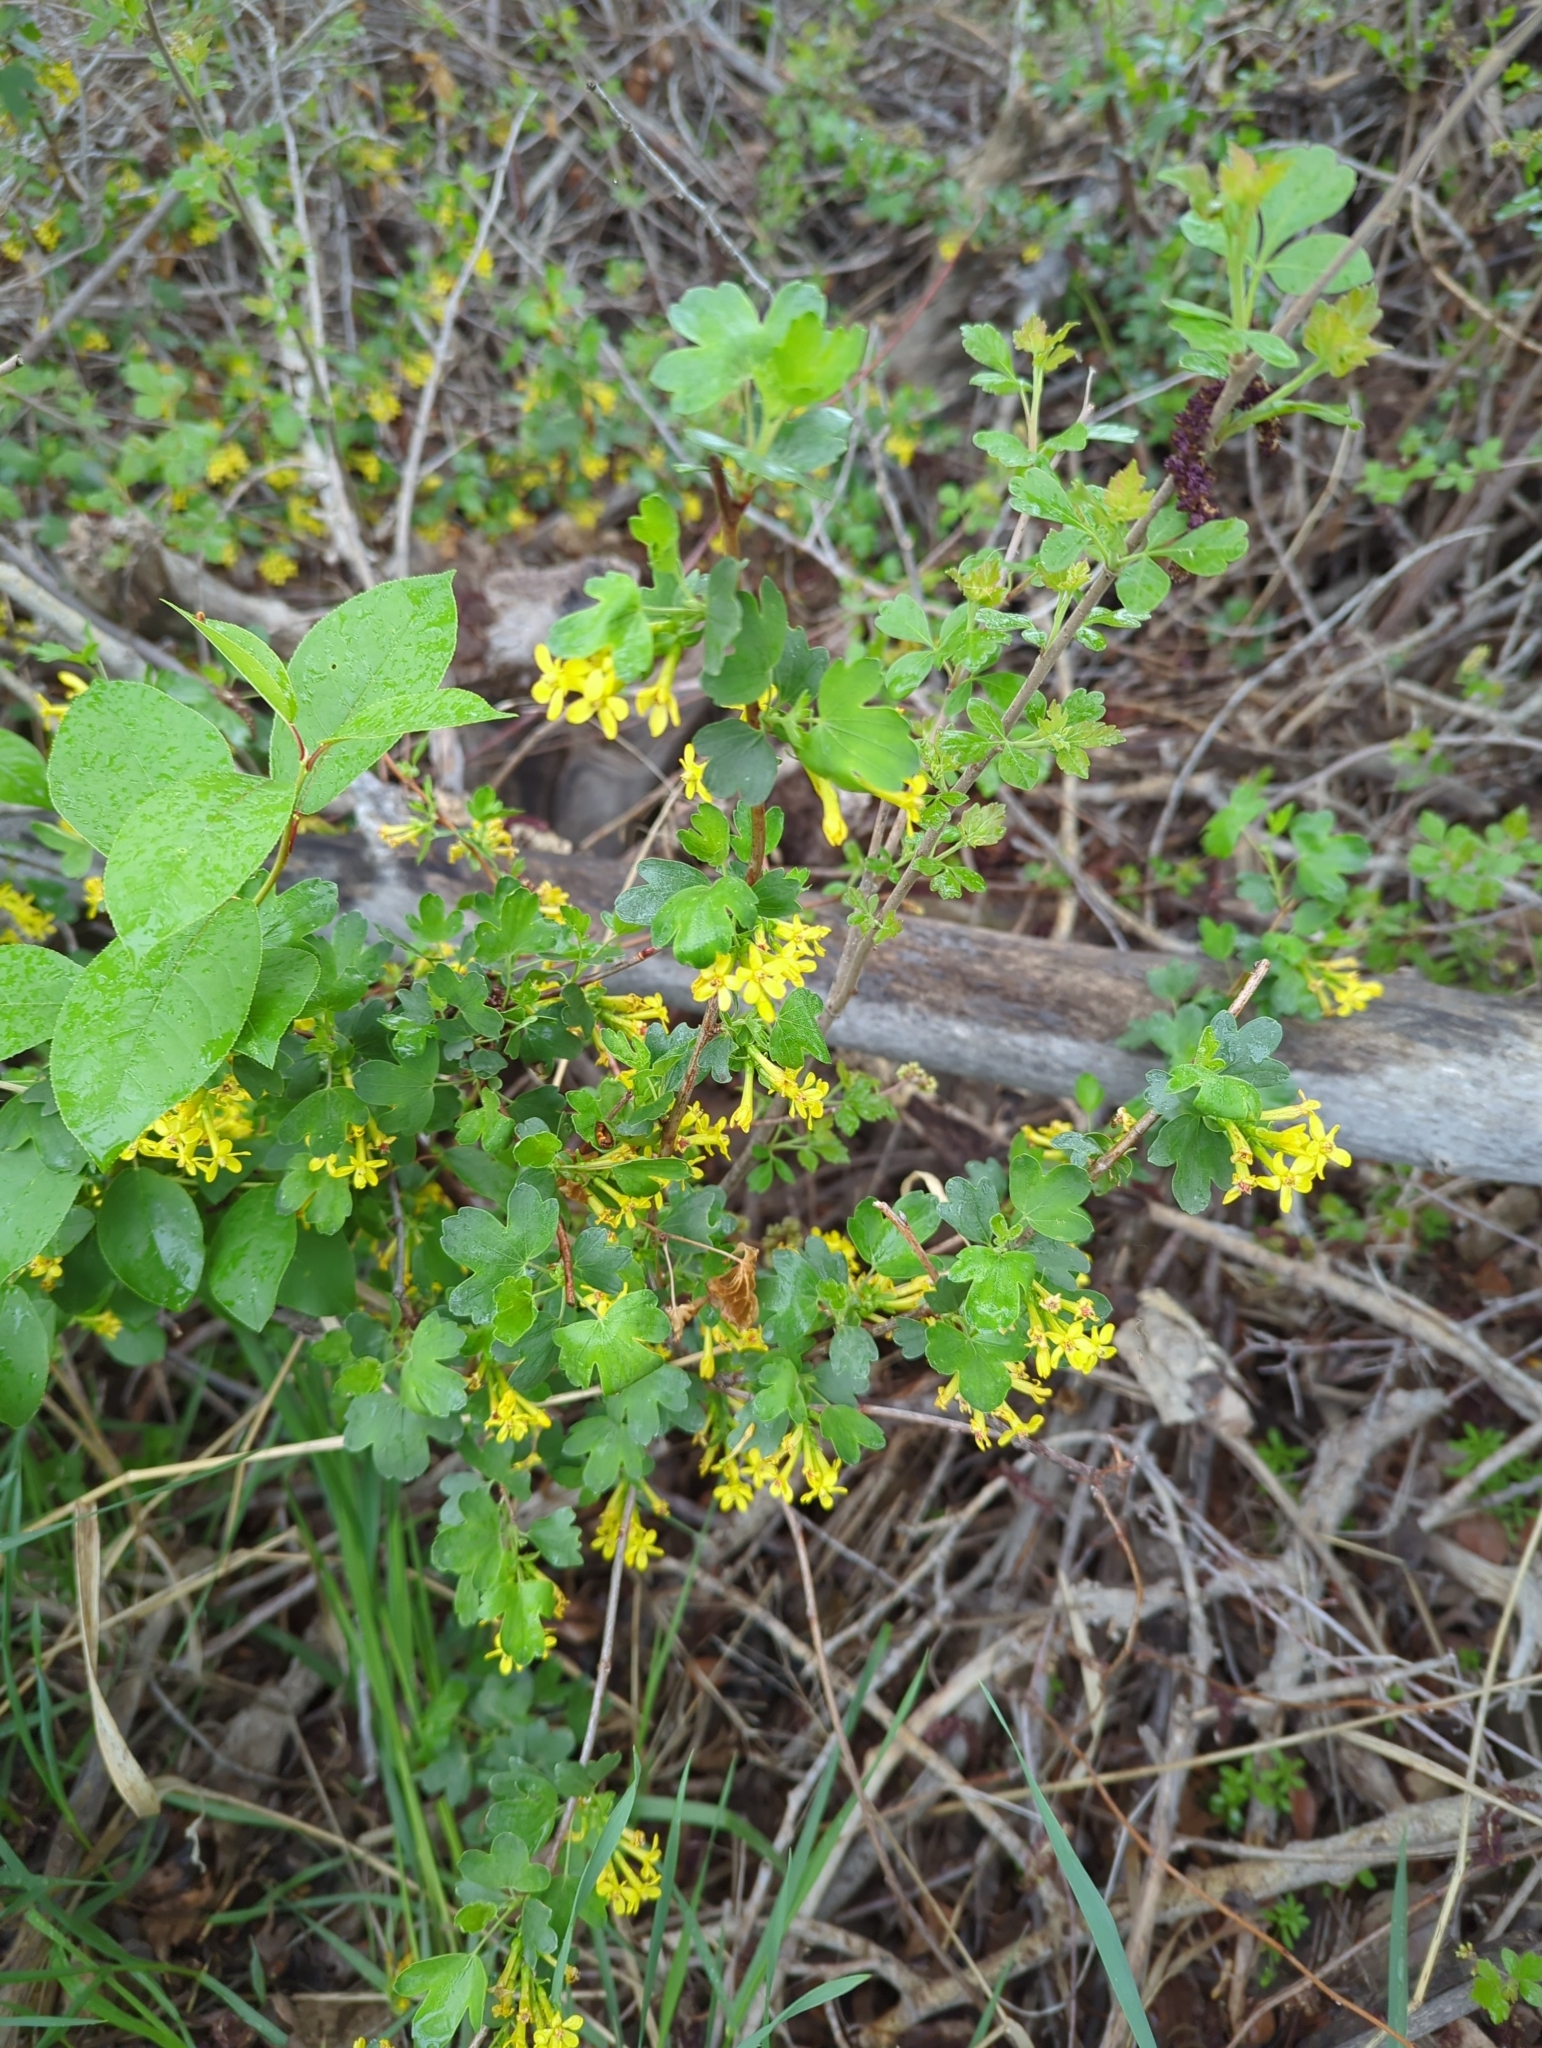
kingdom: Plantae
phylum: Tracheophyta
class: Magnoliopsida
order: Saxifragales
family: Grossulariaceae
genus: Ribes
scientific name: Ribes aureum
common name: Golden currant
